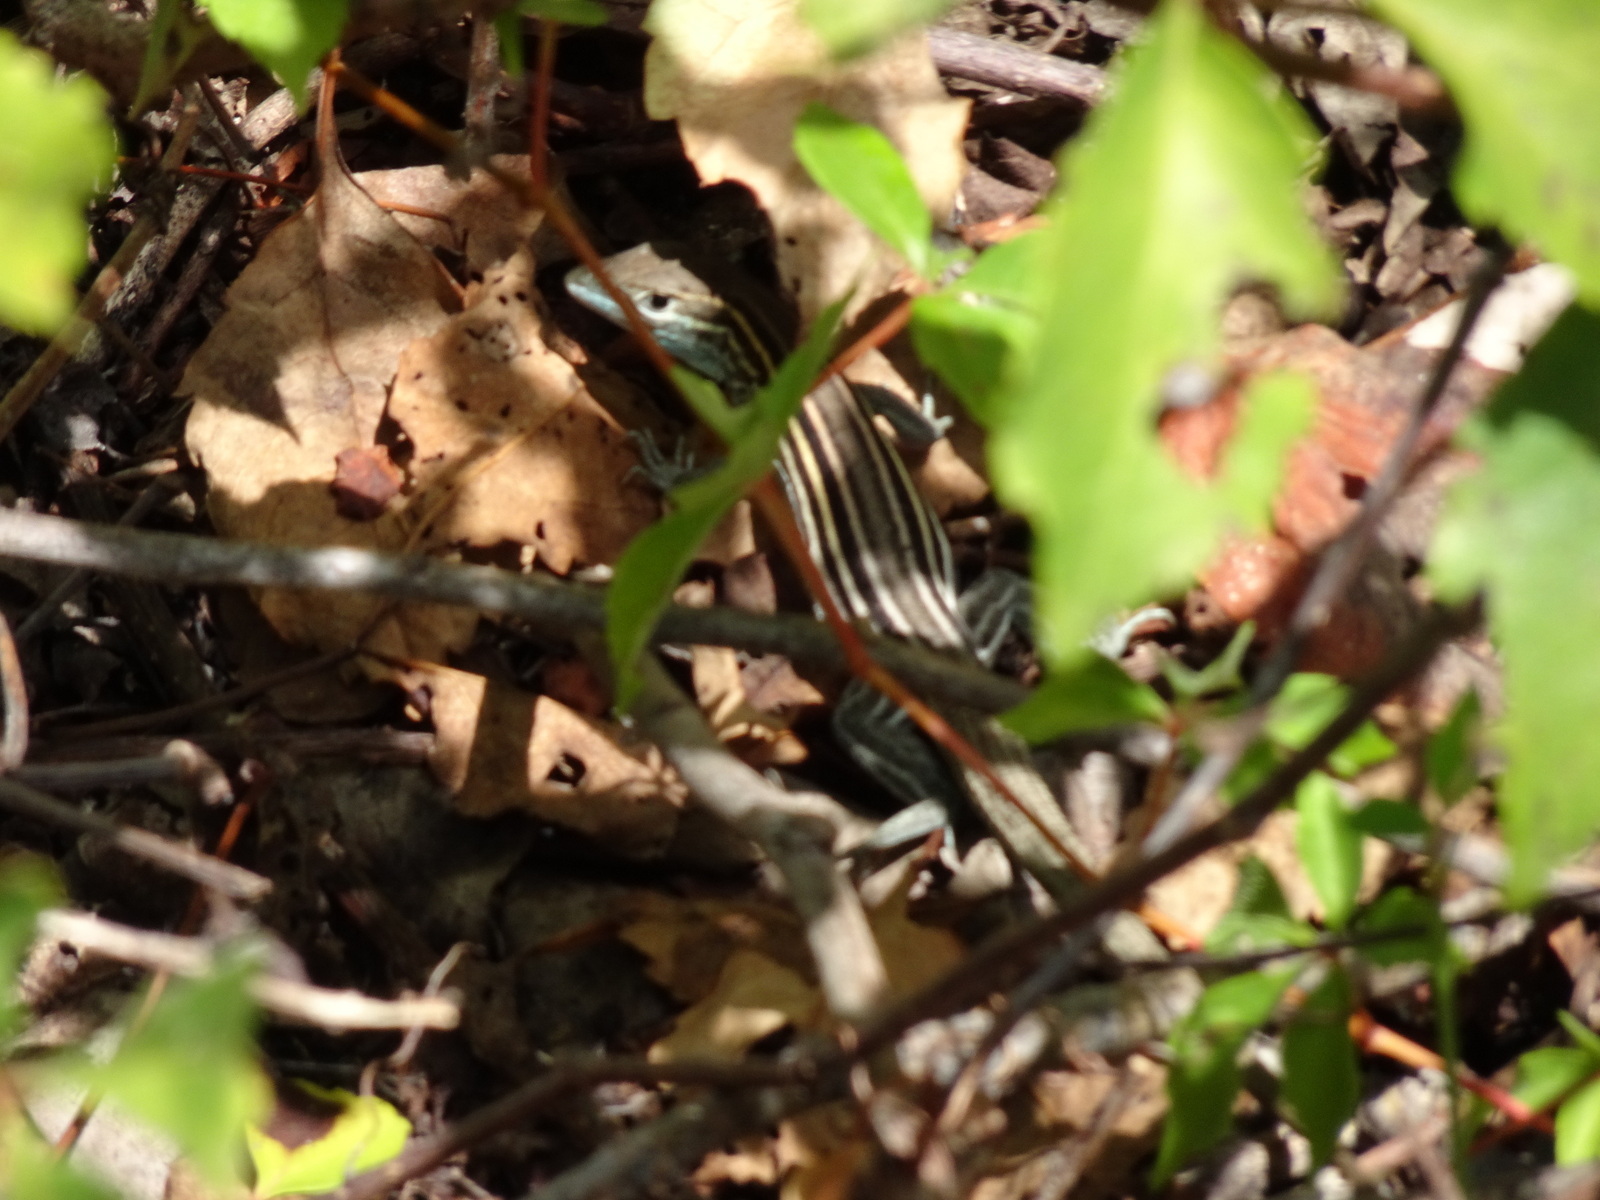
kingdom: Animalia
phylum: Chordata
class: Squamata
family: Teiidae
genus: Aspidoscelis
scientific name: Aspidoscelis sexlineatus
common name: Six-lined racerunner
